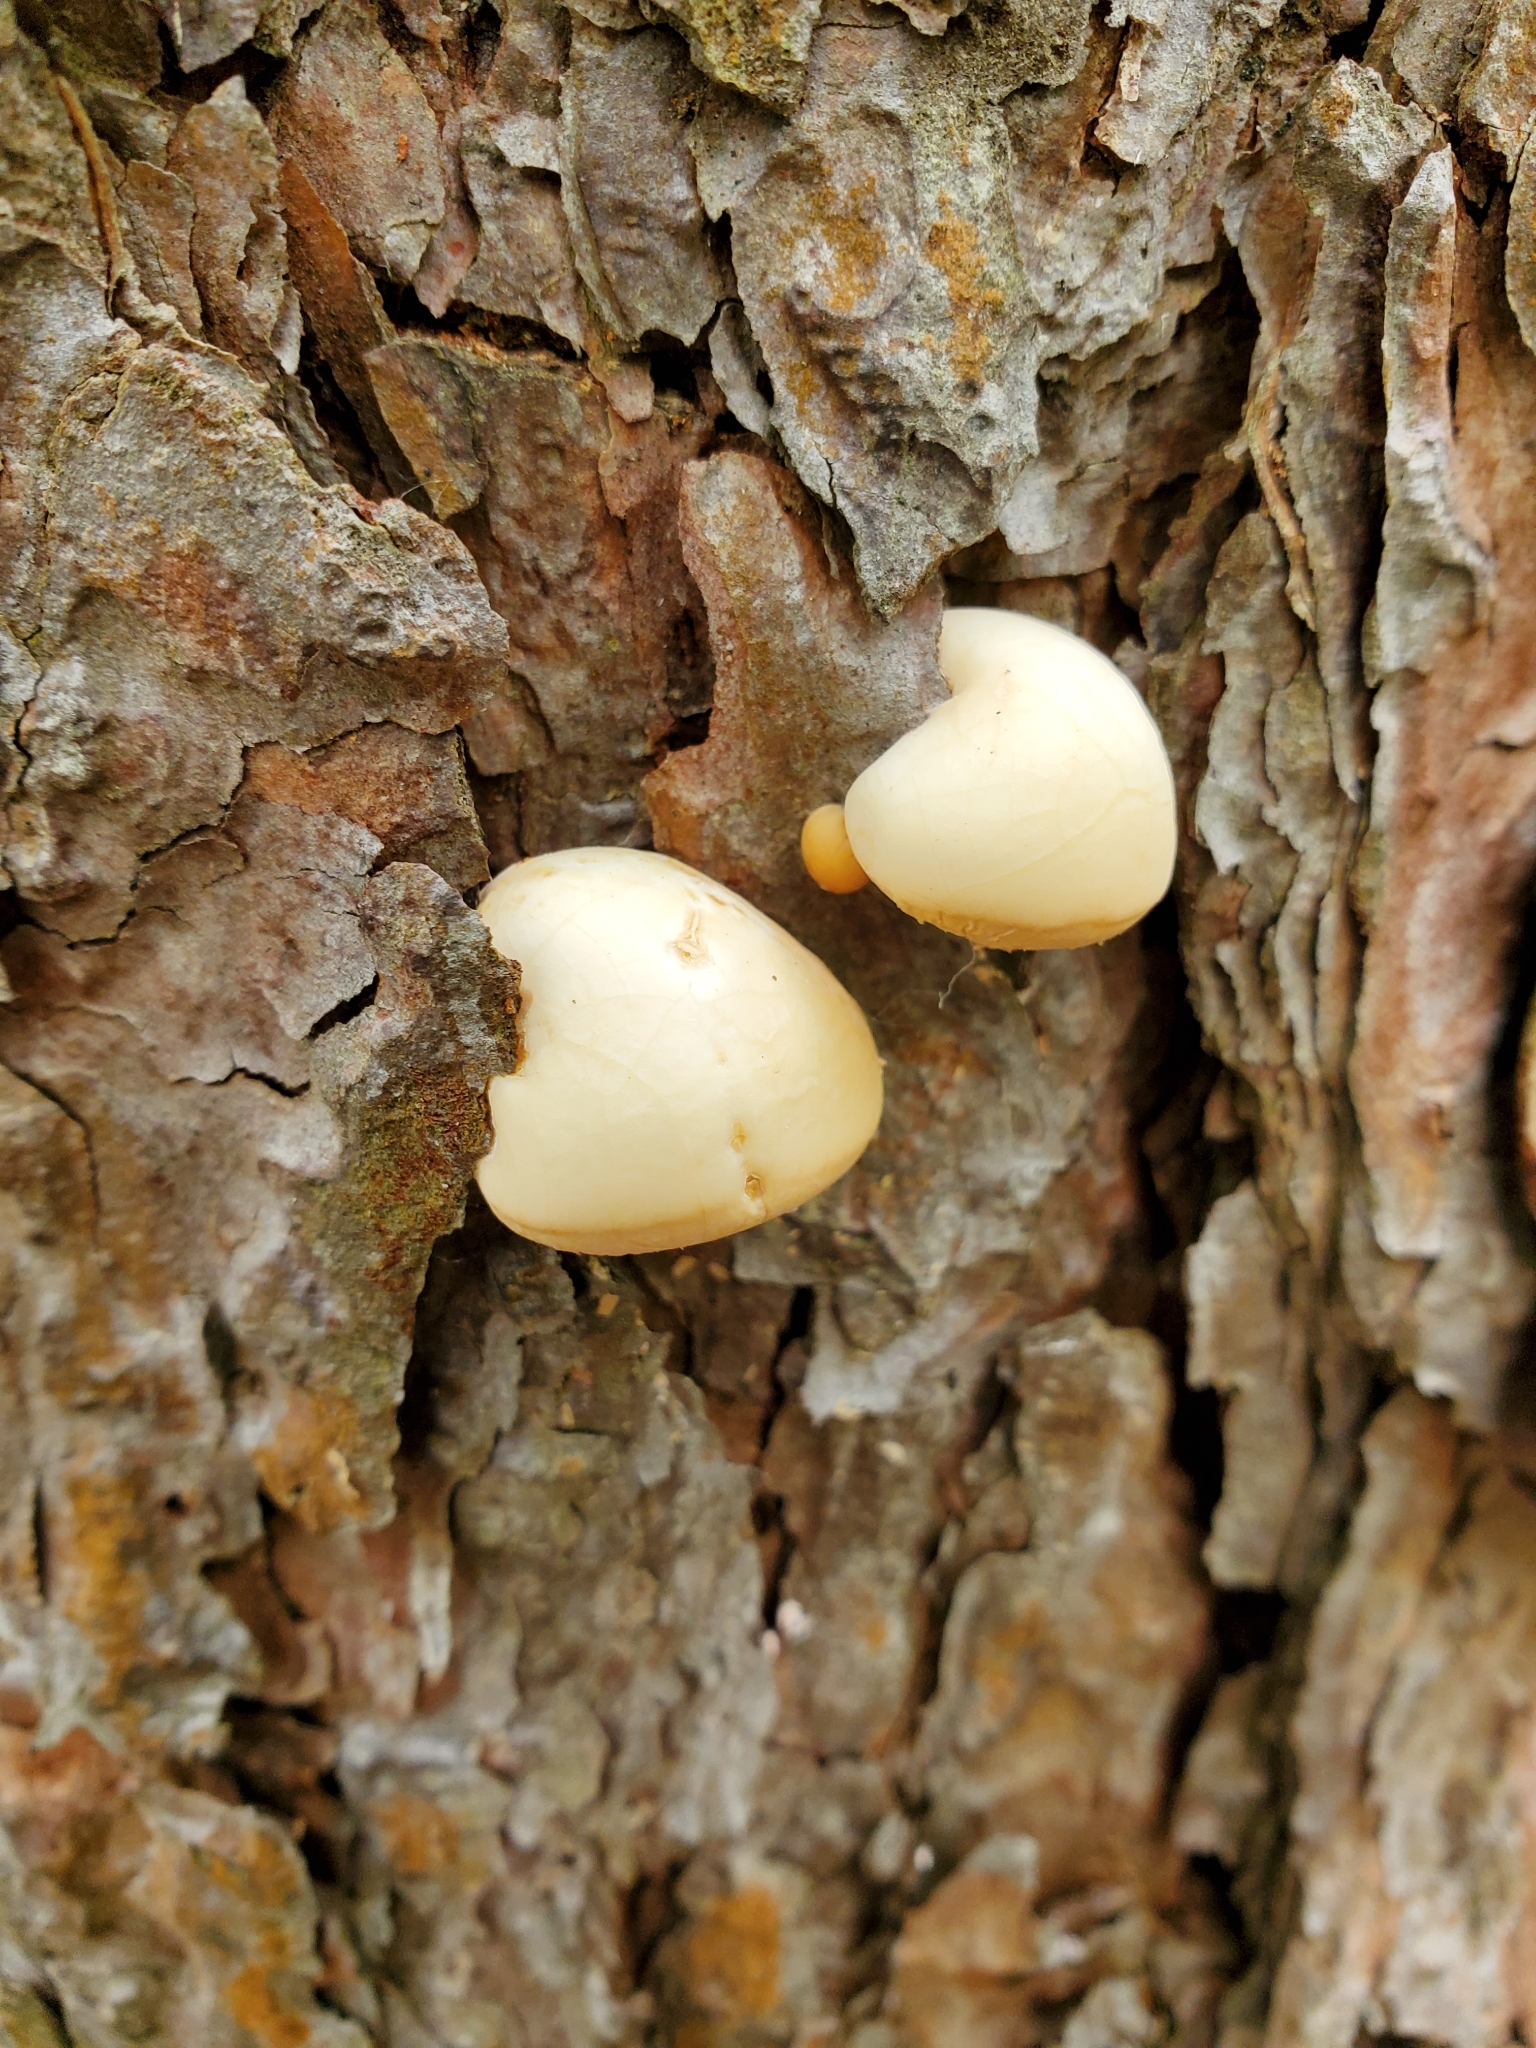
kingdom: Fungi
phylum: Basidiomycota
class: Agaricomycetes
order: Polyporales
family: Polyporaceae
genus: Cryptoporus
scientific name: Cryptoporus volvatus
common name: Veiled polypore
